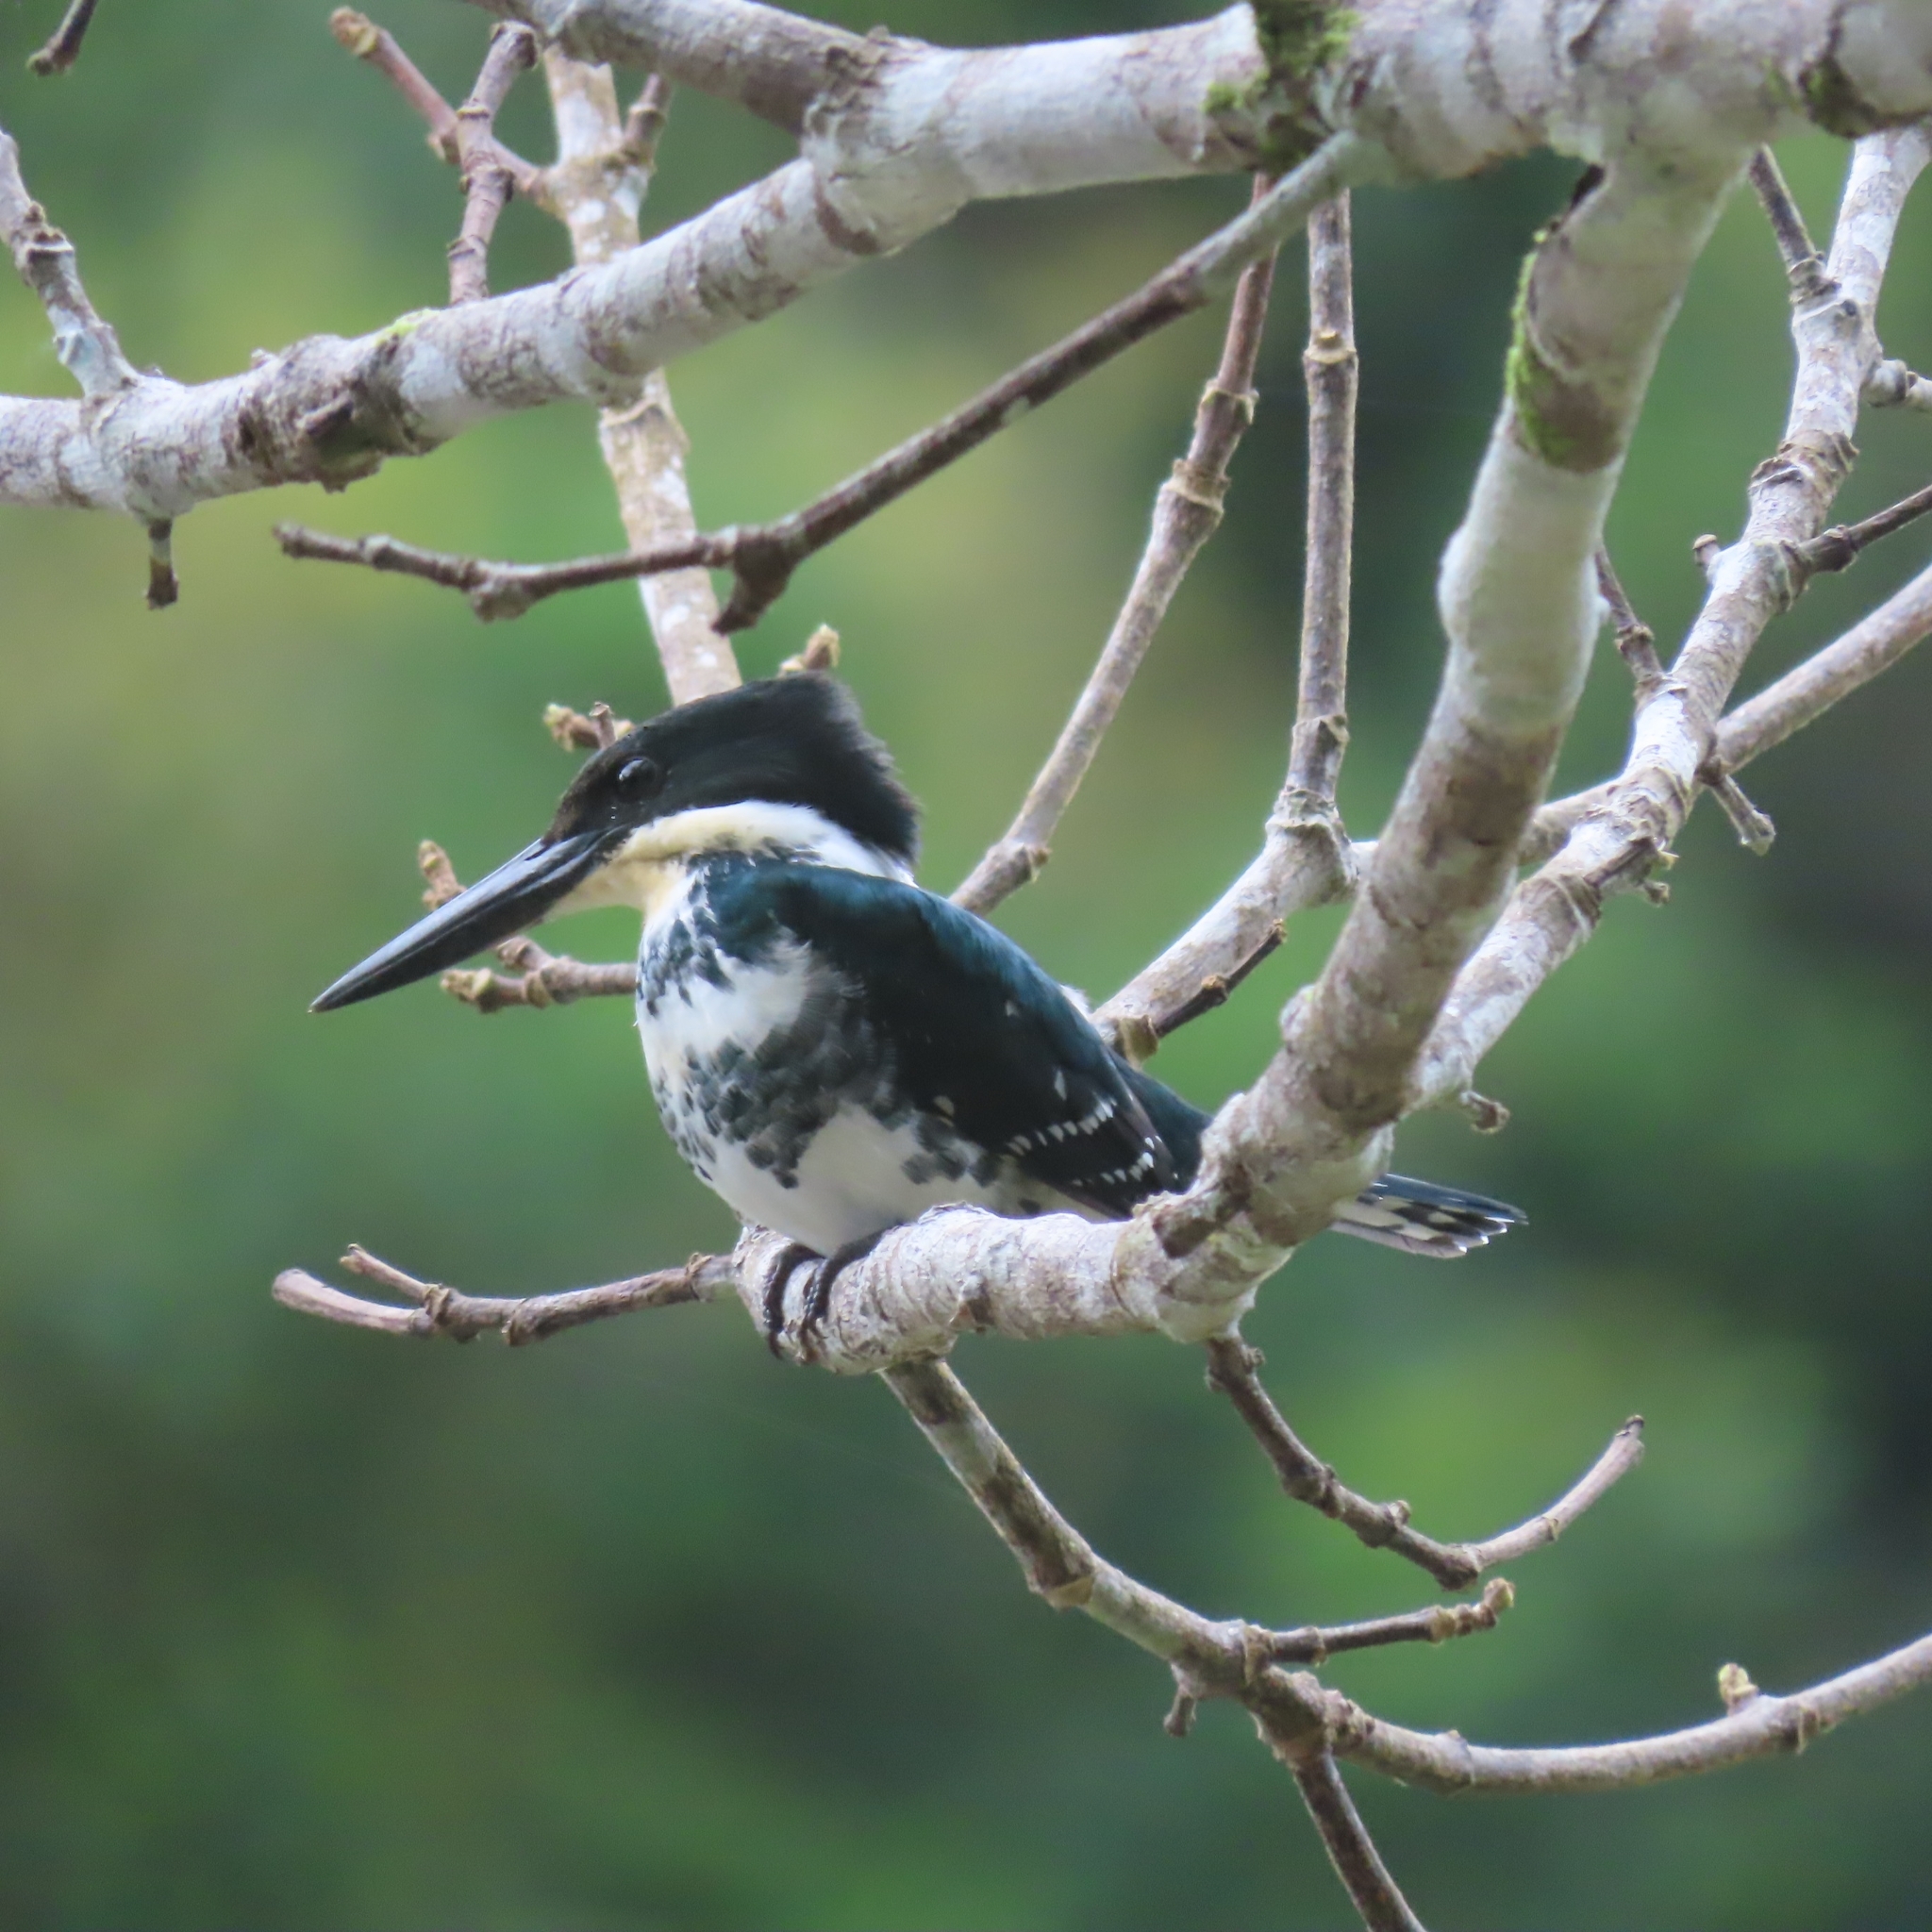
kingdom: Animalia
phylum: Chordata
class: Aves
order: Coraciiformes
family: Alcedinidae
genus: Chloroceryle
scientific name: Chloroceryle americana
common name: Green kingfisher
